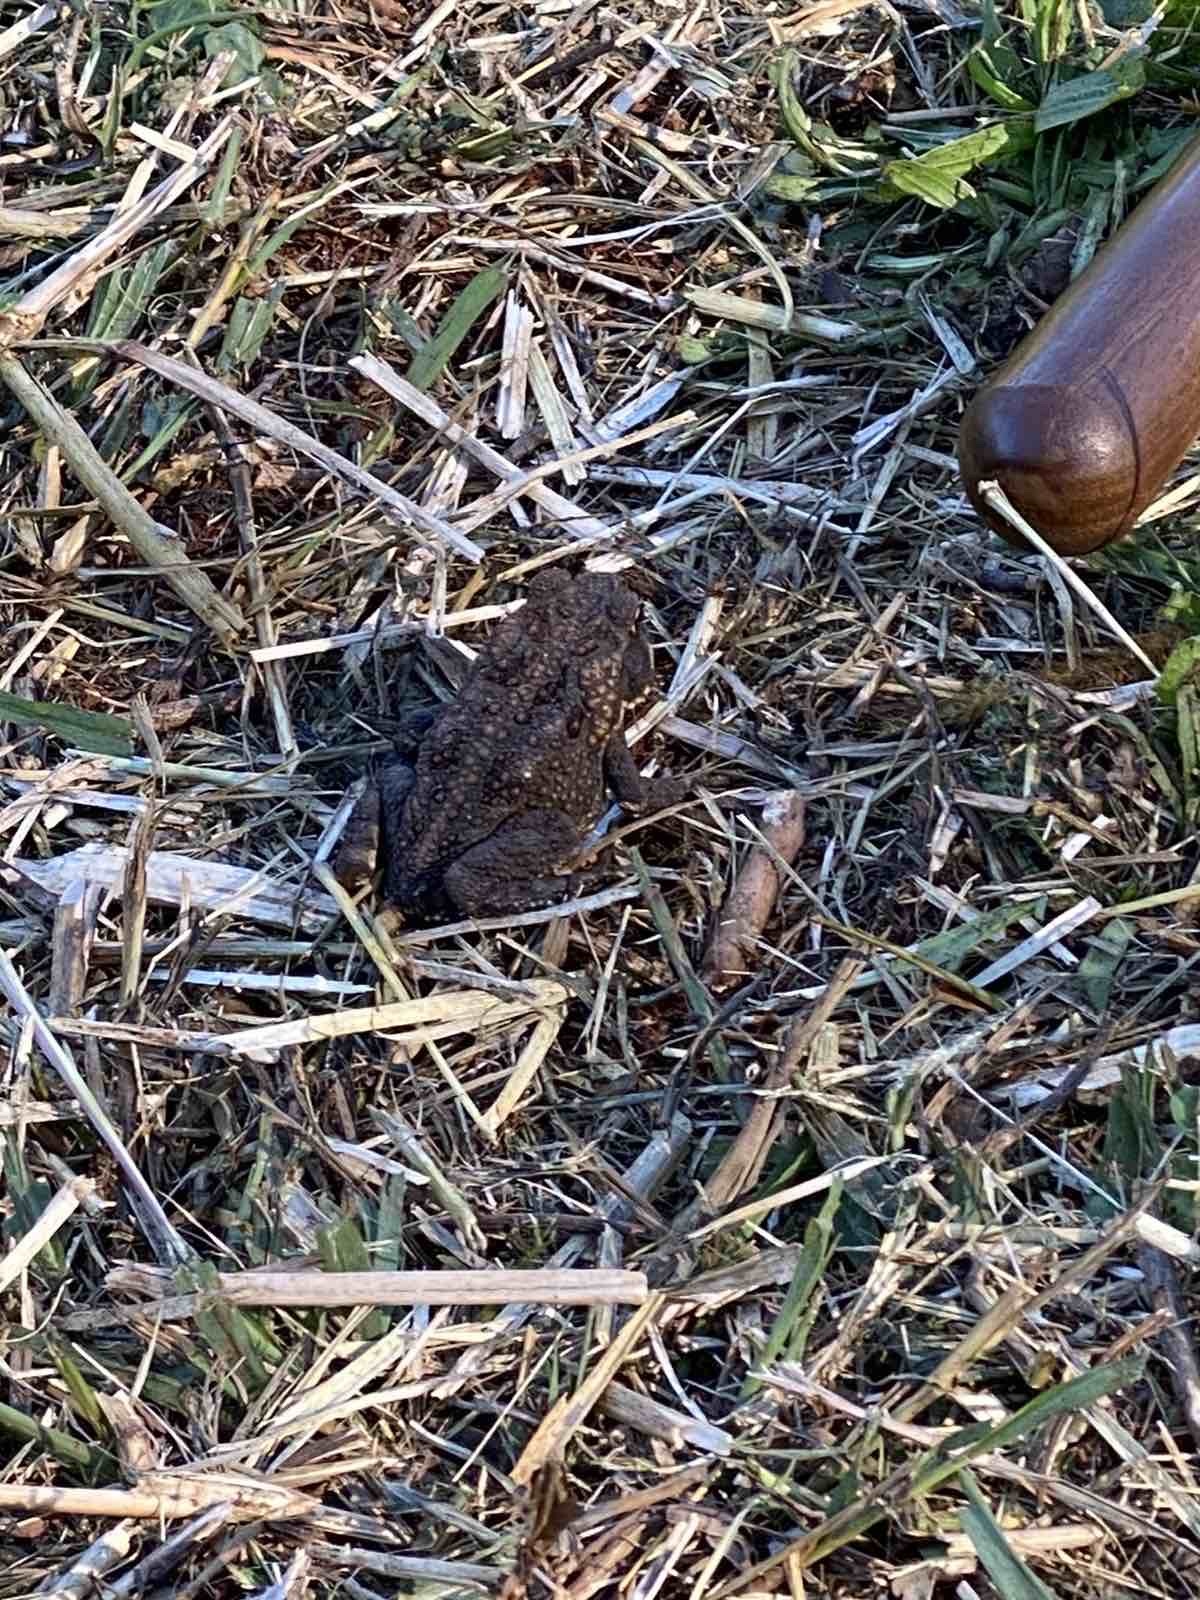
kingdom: Animalia
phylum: Chordata
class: Amphibia
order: Anura
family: Bufonidae
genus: Rhinella
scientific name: Rhinella marina
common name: Cane toad
